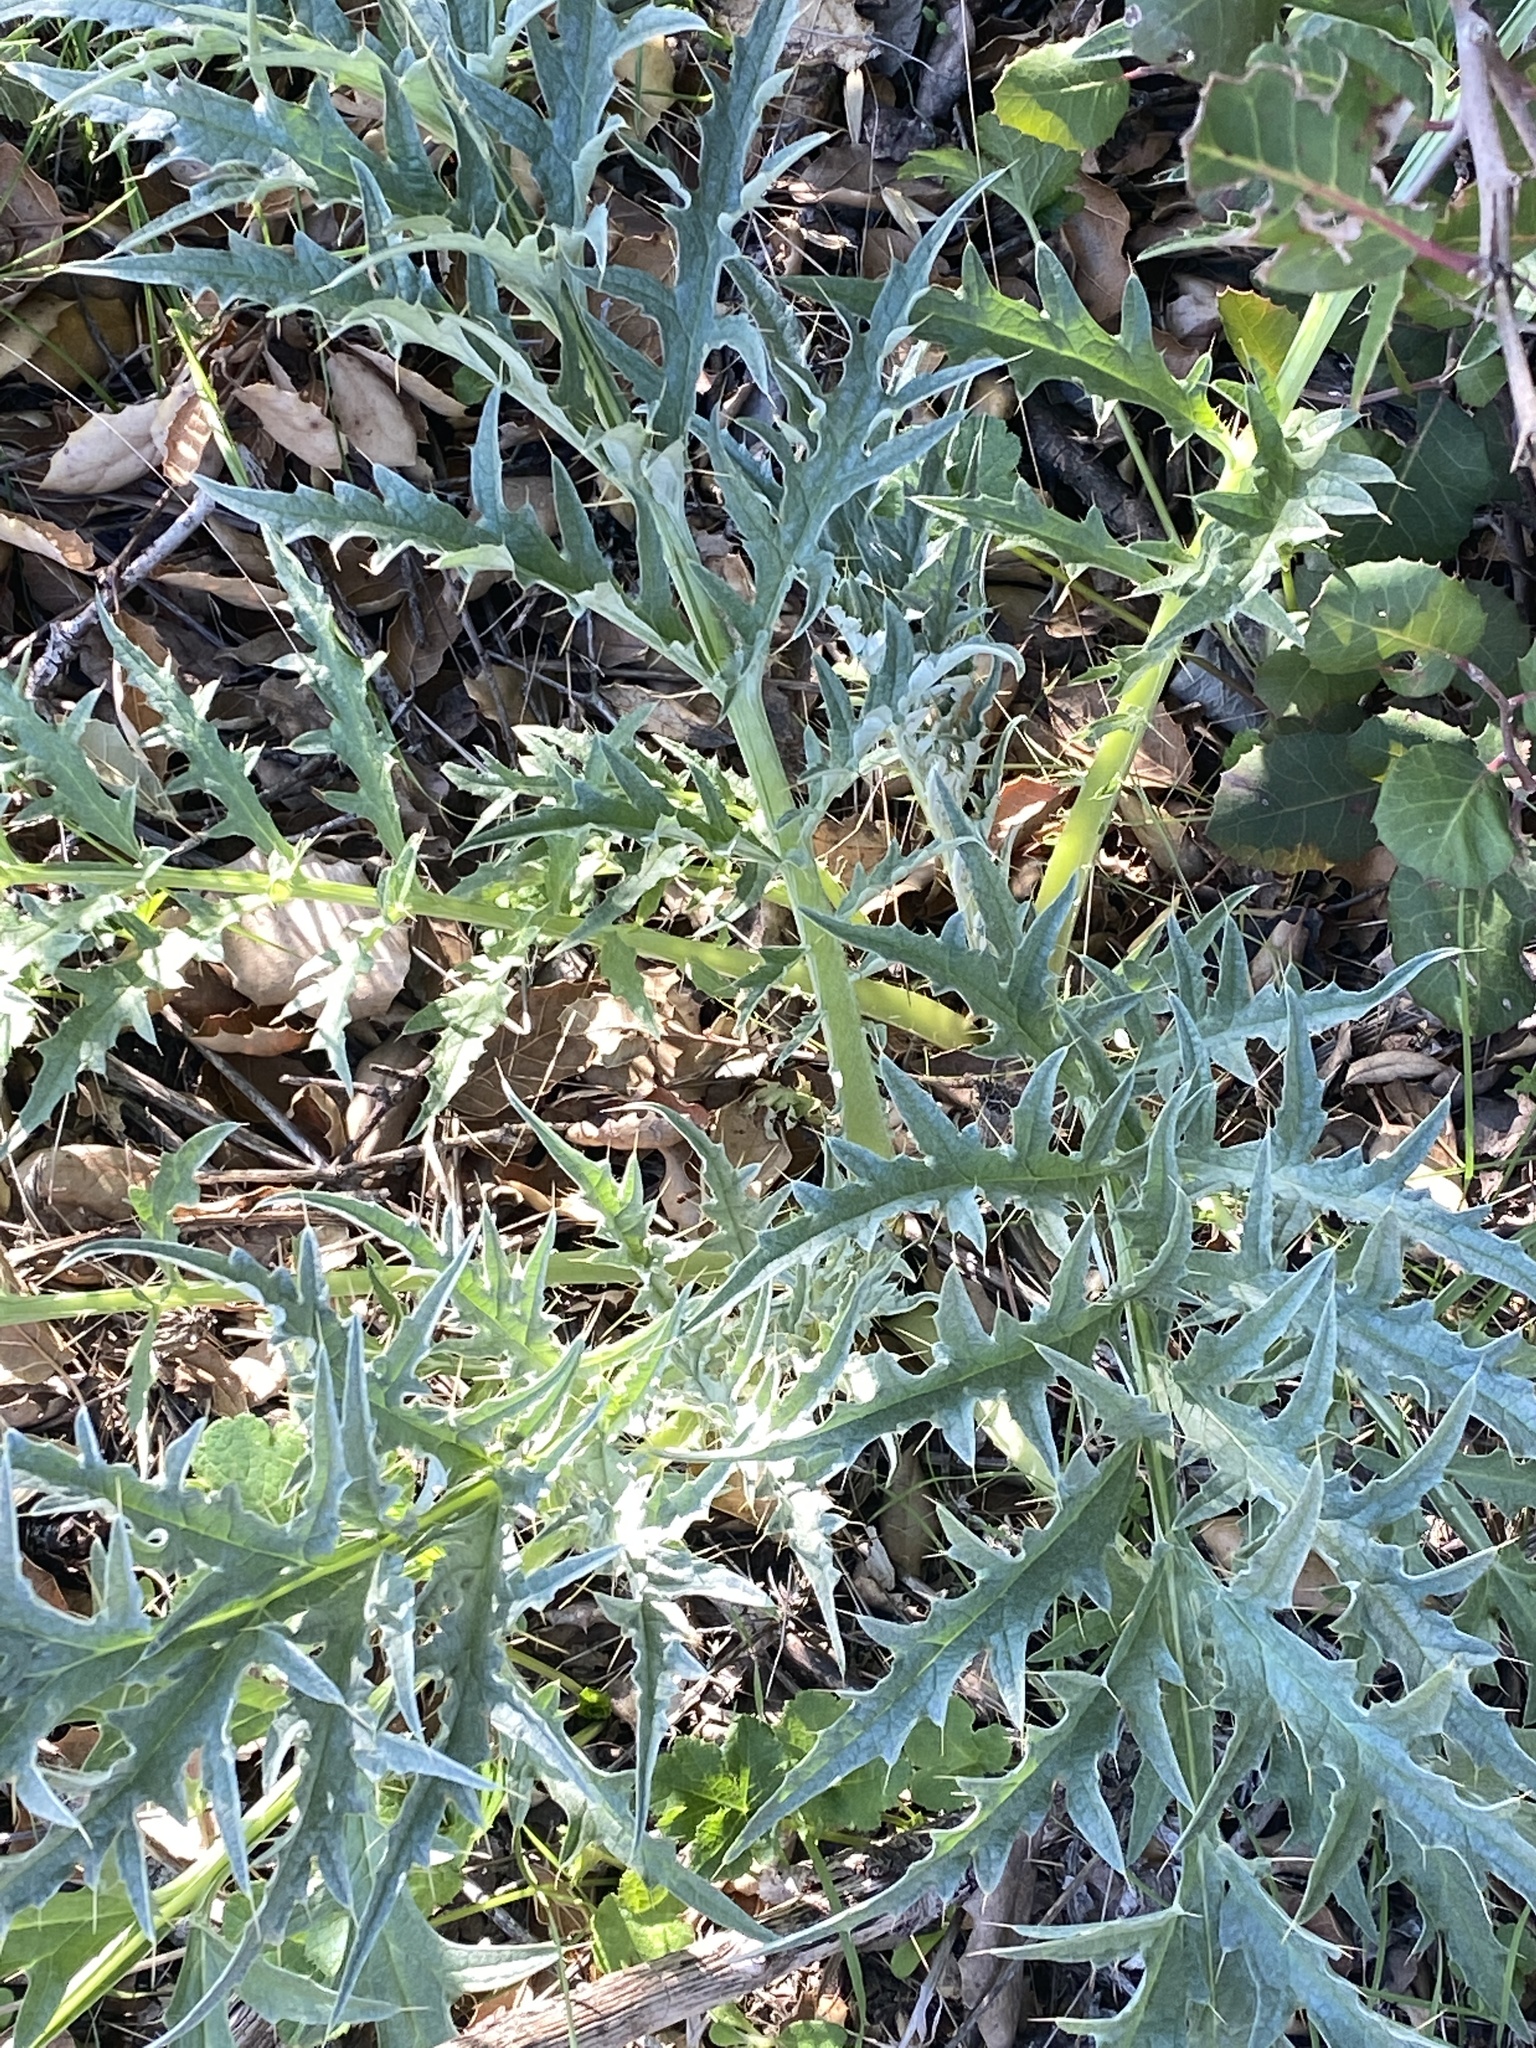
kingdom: Plantae
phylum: Tracheophyta
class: Magnoliopsida
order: Asterales
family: Asteraceae
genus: Cynara
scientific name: Cynara cardunculus
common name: Globe artichoke
